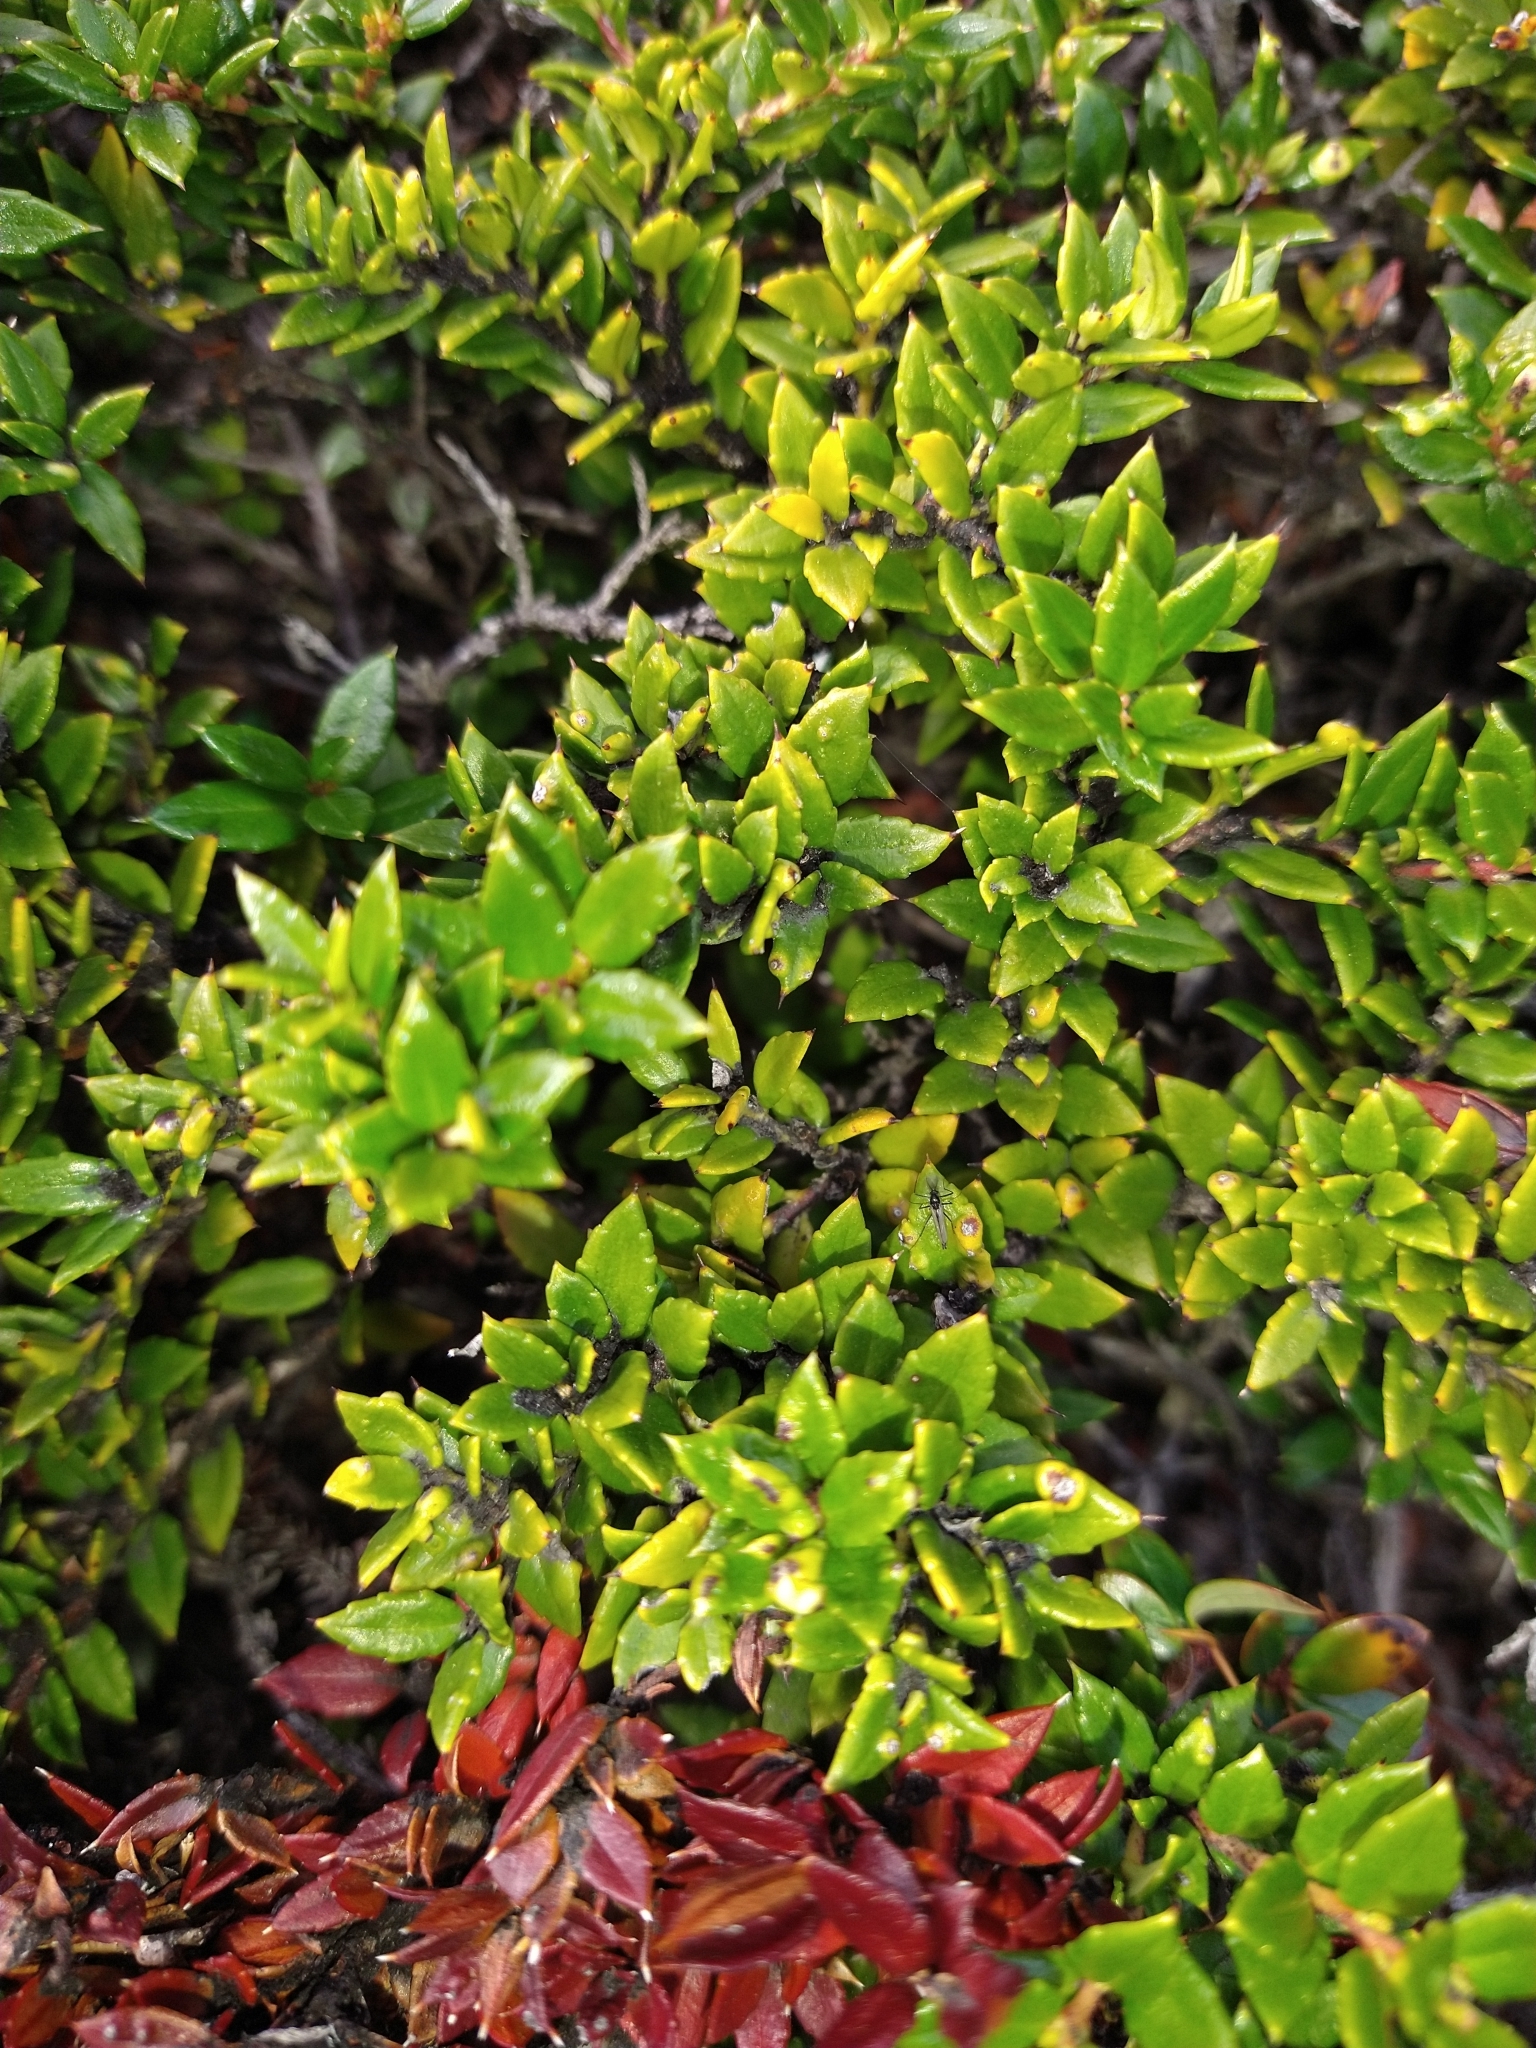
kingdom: Plantae
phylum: Tracheophyta
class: Magnoliopsida
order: Ericales
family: Ericaceae
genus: Gaultheria
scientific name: Gaultheria mucronata
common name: Prickly heath
